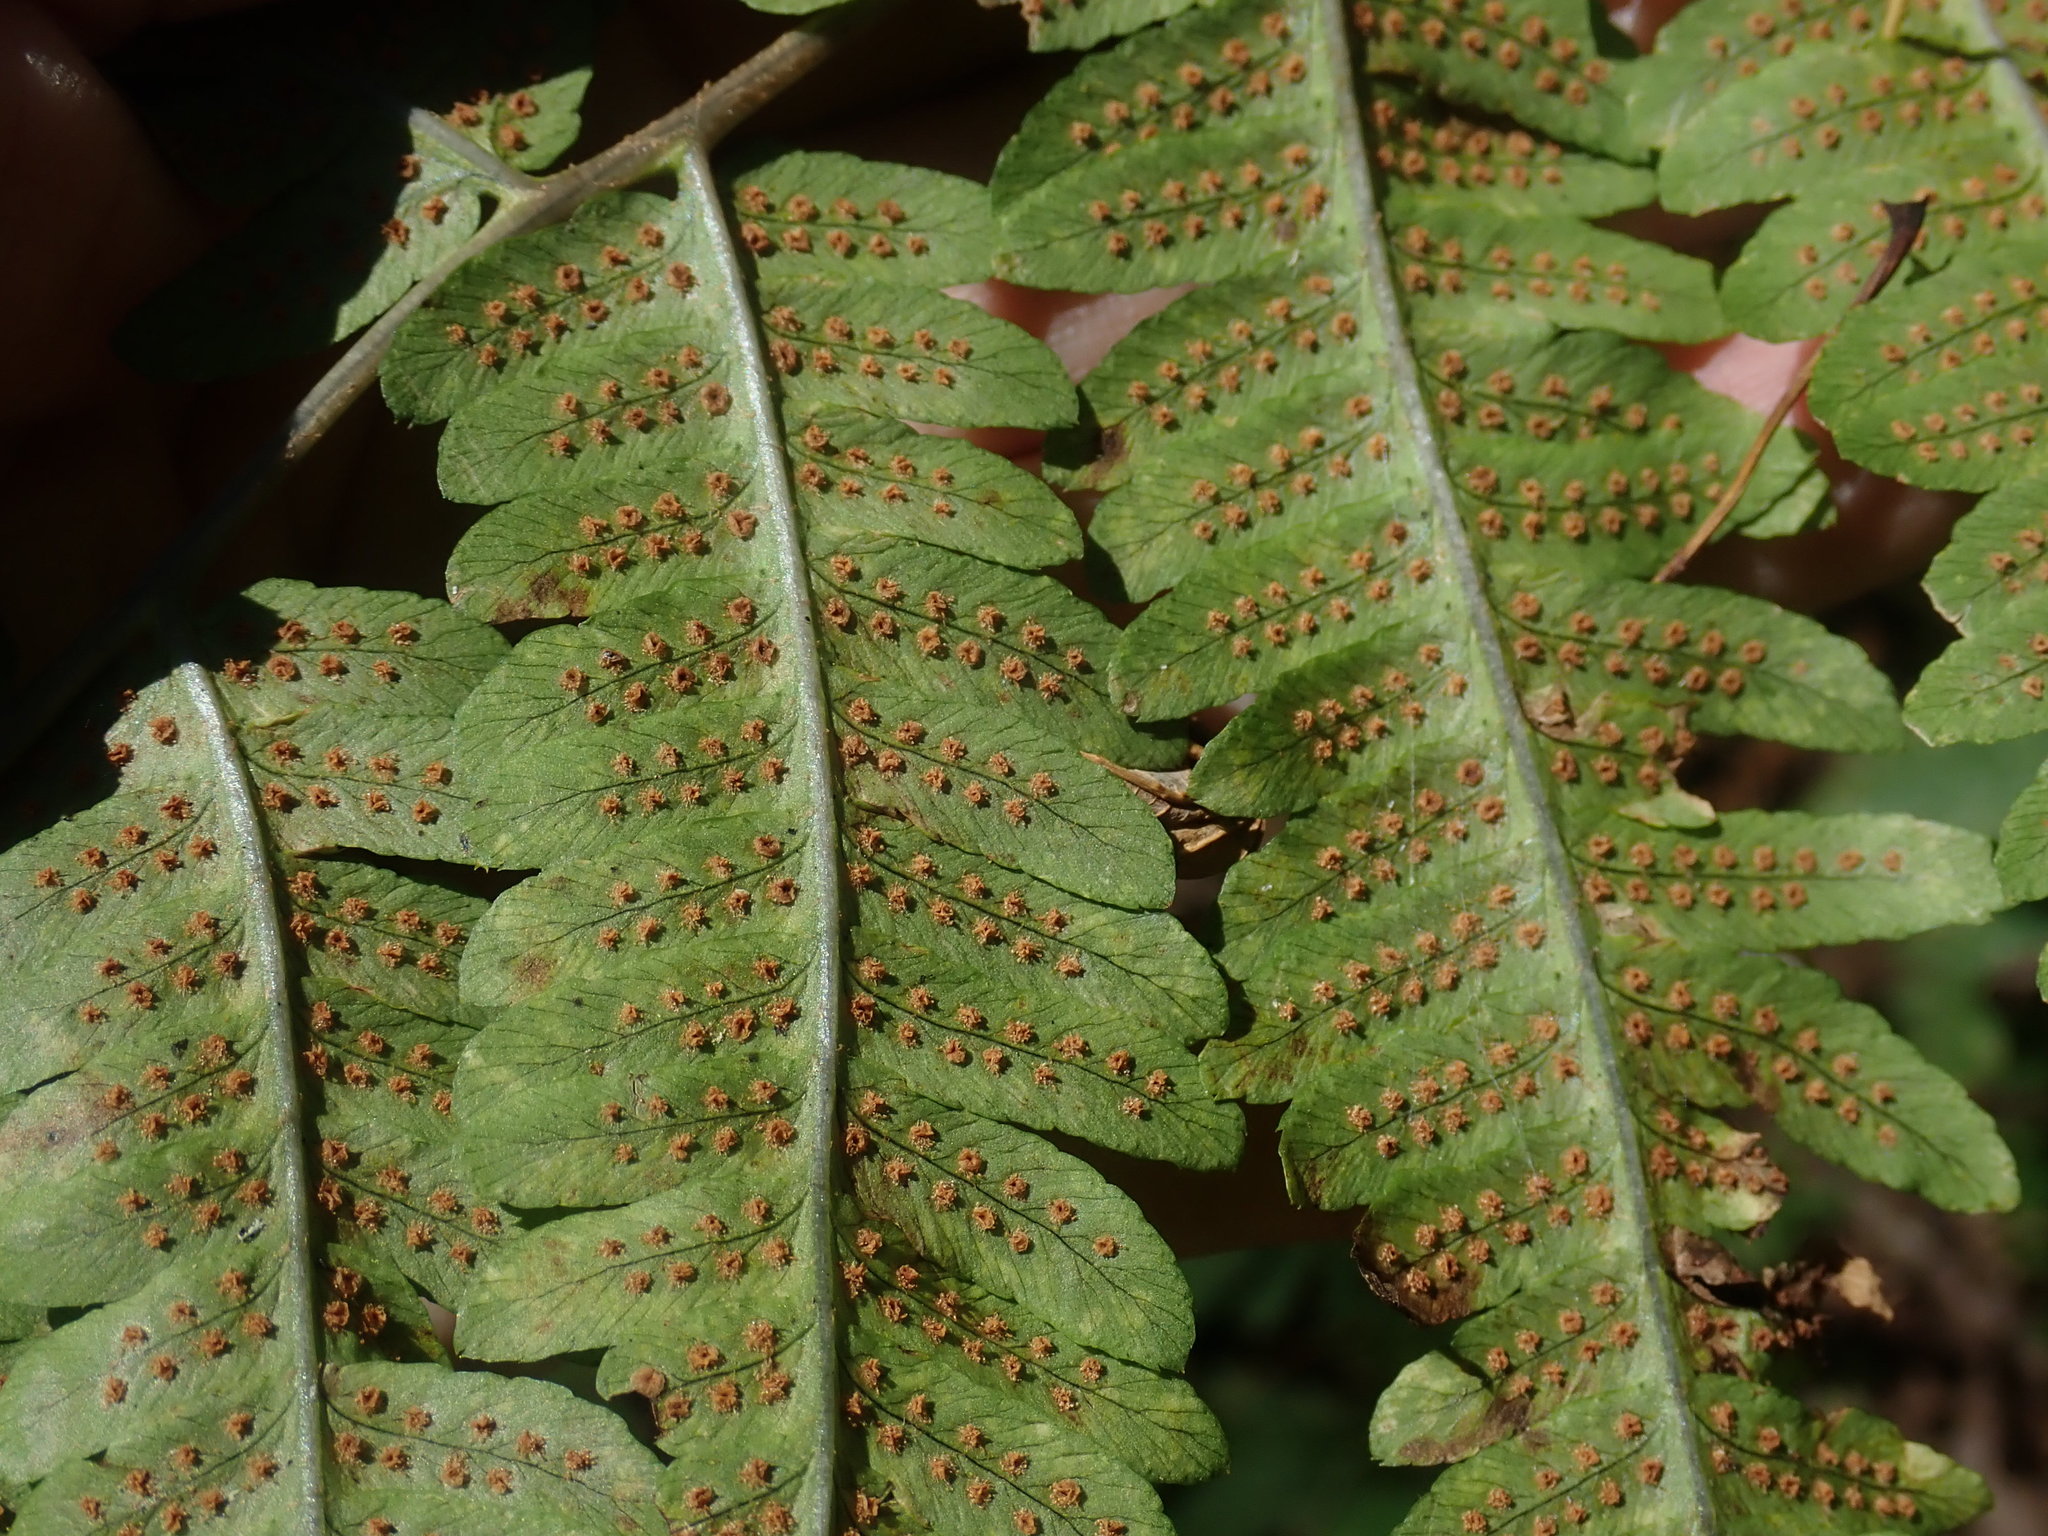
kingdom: Plantae
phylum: Tracheophyta
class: Polypodiopsida
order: Polypodiales
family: Dryopteridaceae
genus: Dryopteris
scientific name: Dryopteris goldieana
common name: Goldie's fern
